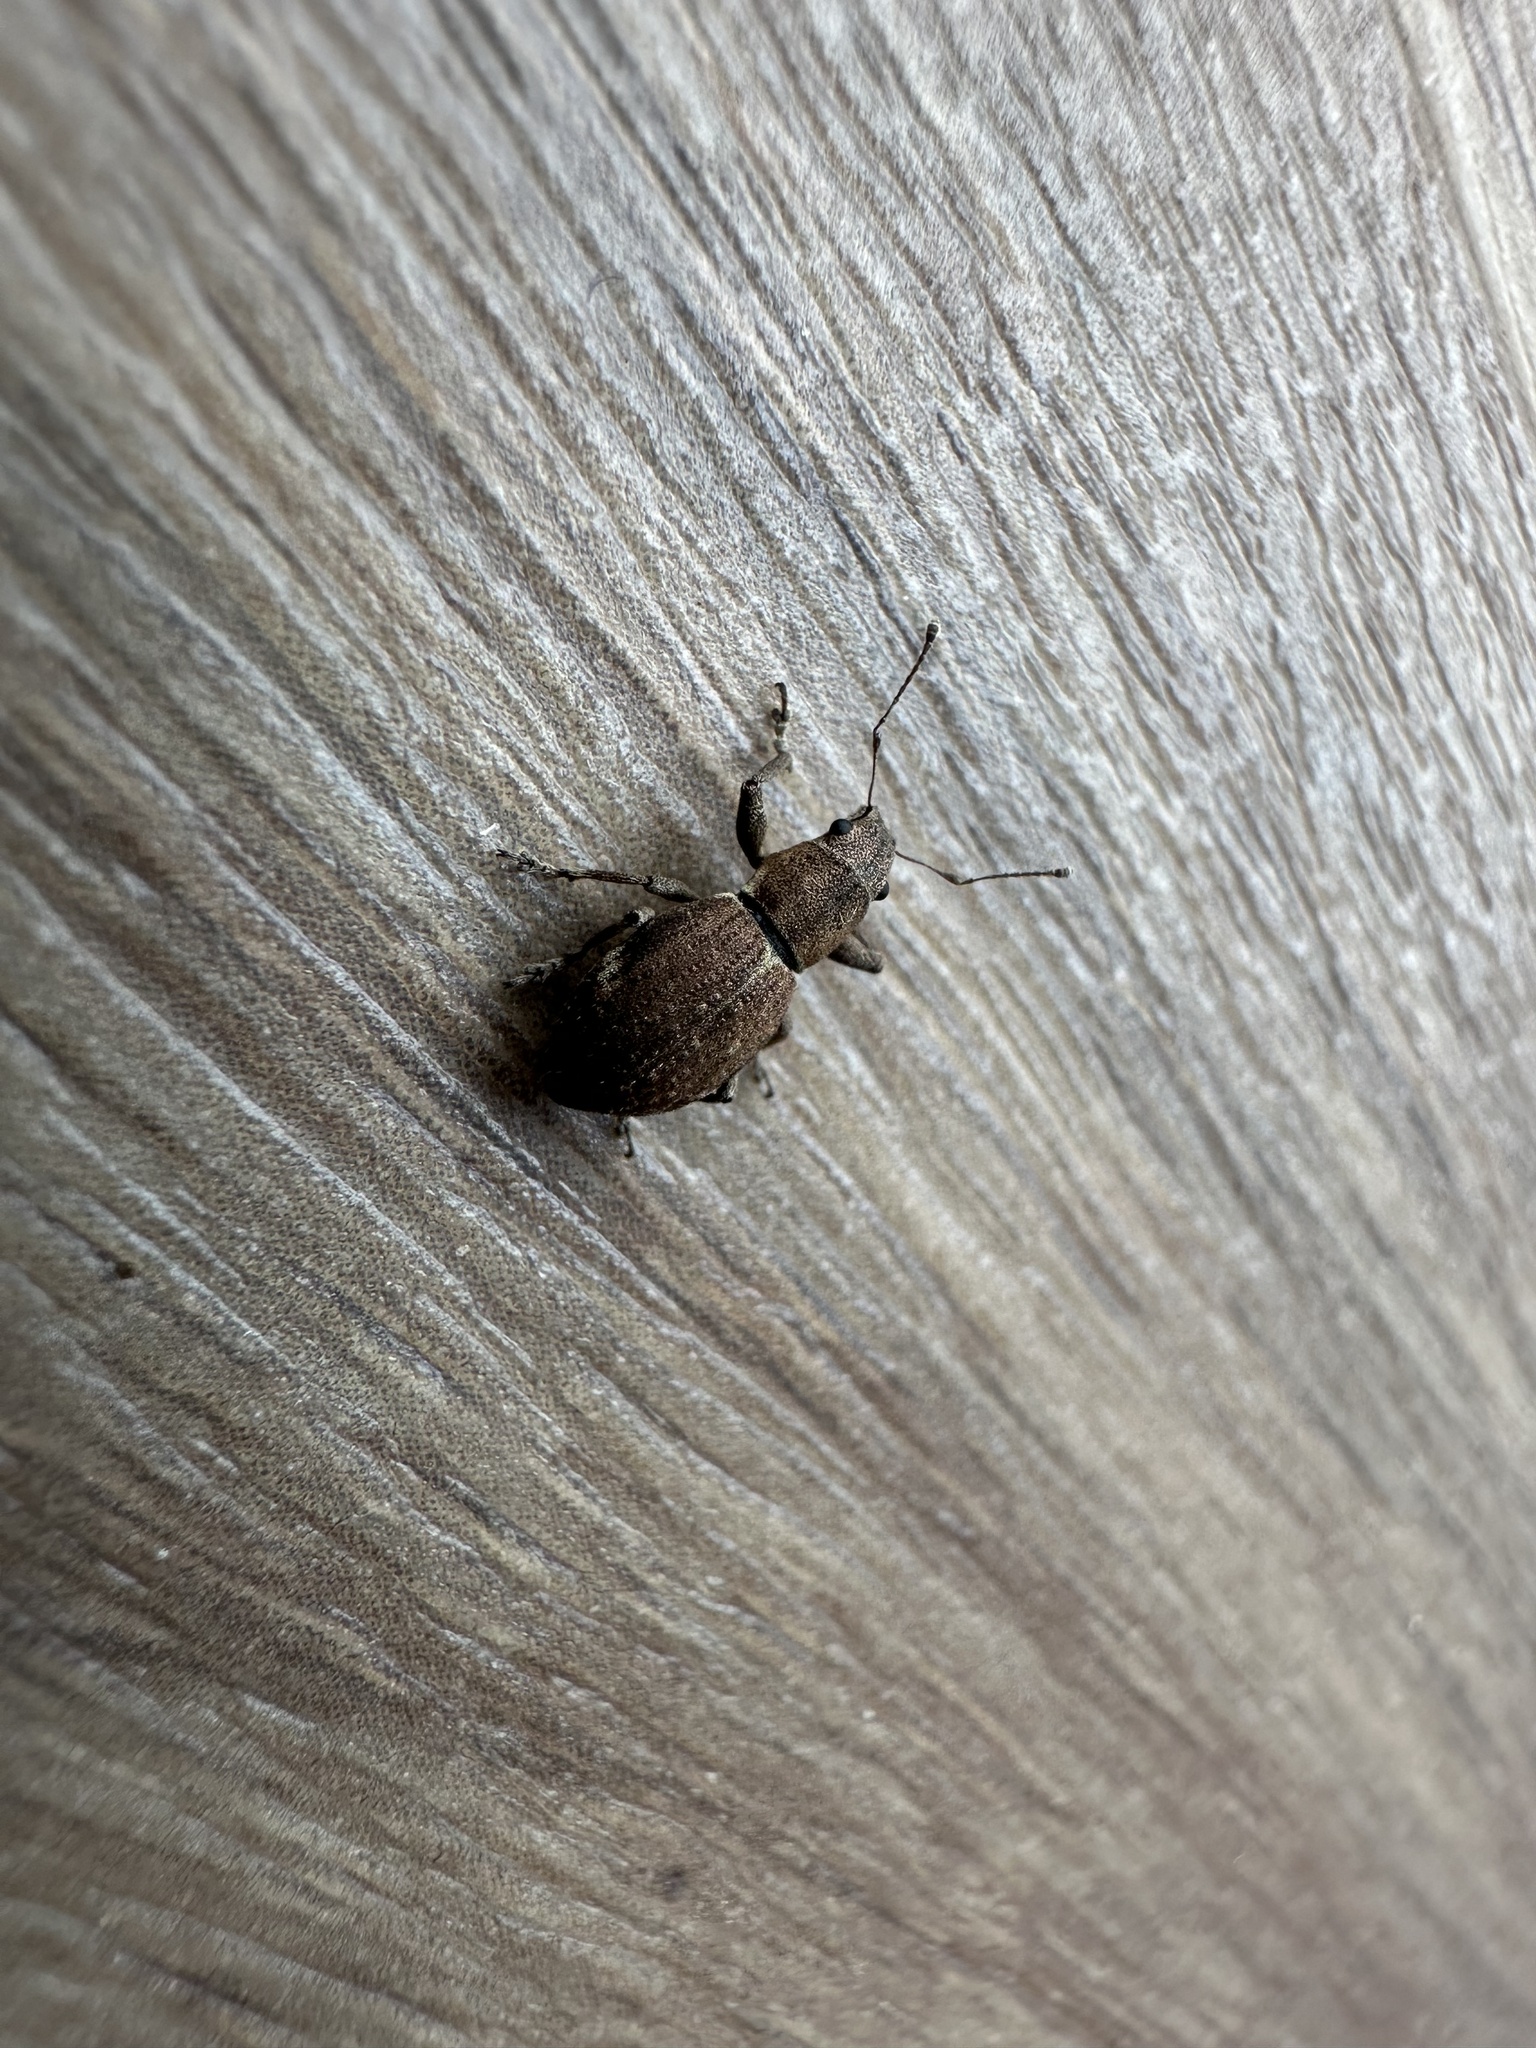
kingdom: Animalia
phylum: Arthropoda
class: Insecta
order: Coleoptera
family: Curculionidae
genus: Naupactus
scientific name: Naupactus cervinus
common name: Fuller rose beetle
